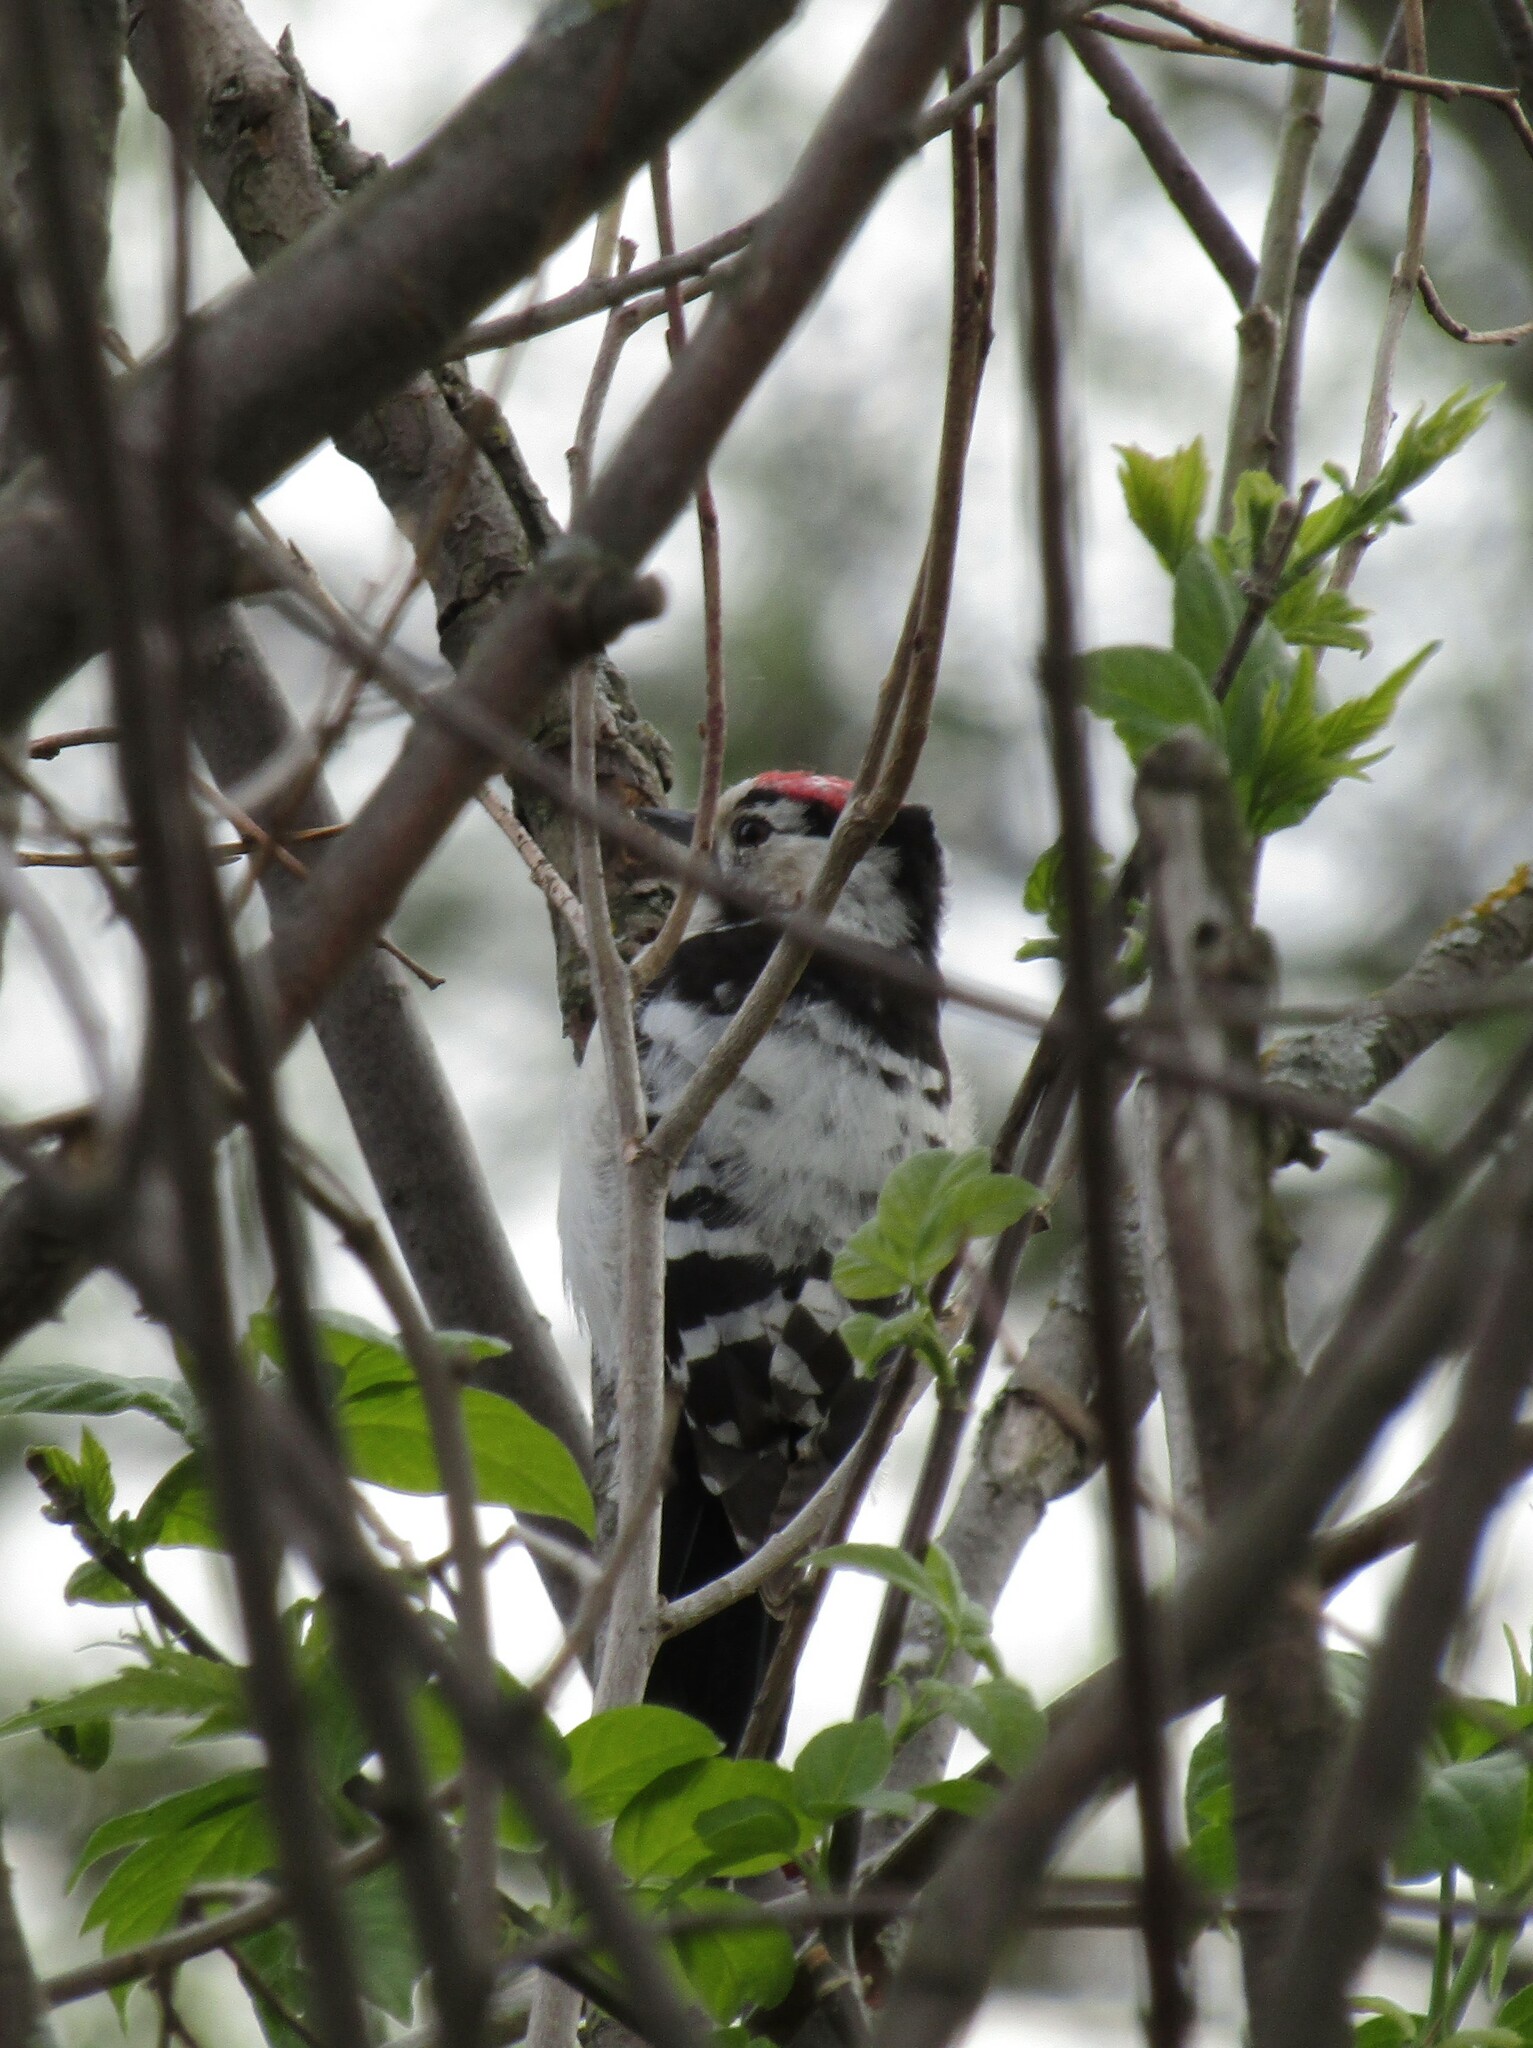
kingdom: Animalia
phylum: Chordata
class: Aves
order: Piciformes
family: Picidae
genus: Dryobates
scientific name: Dryobates minor
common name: Lesser spotted woodpecker
